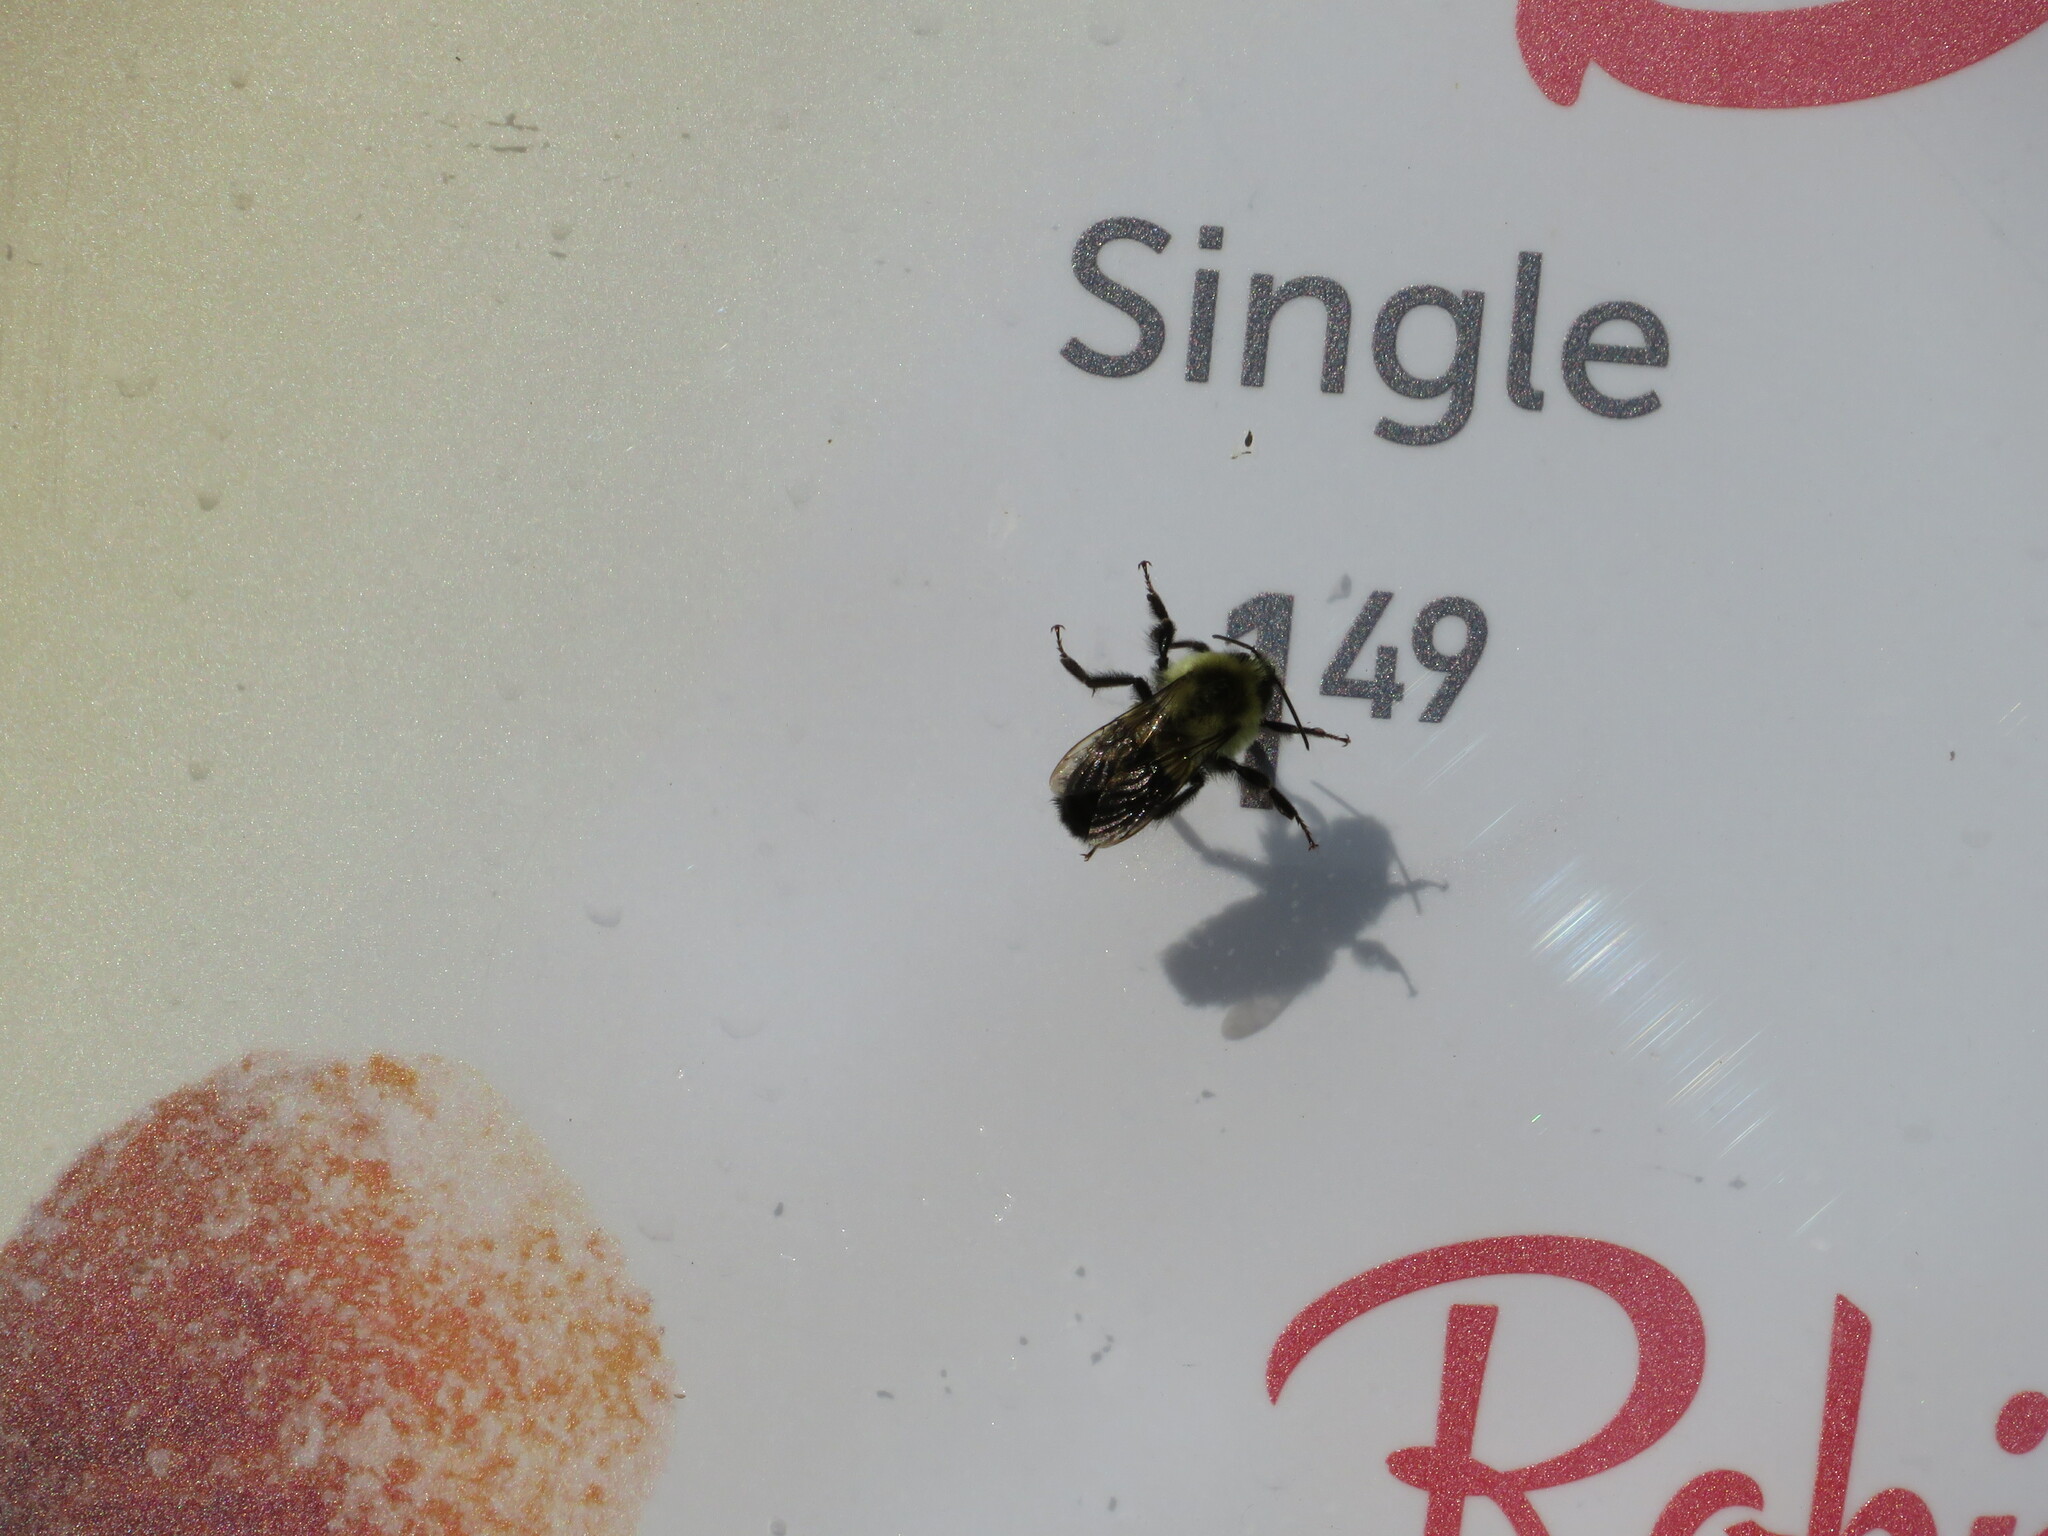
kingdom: Animalia
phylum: Arthropoda
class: Insecta
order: Hymenoptera
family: Apidae
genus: Bombus
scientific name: Bombus impatiens
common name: Common eastern bumble bee
